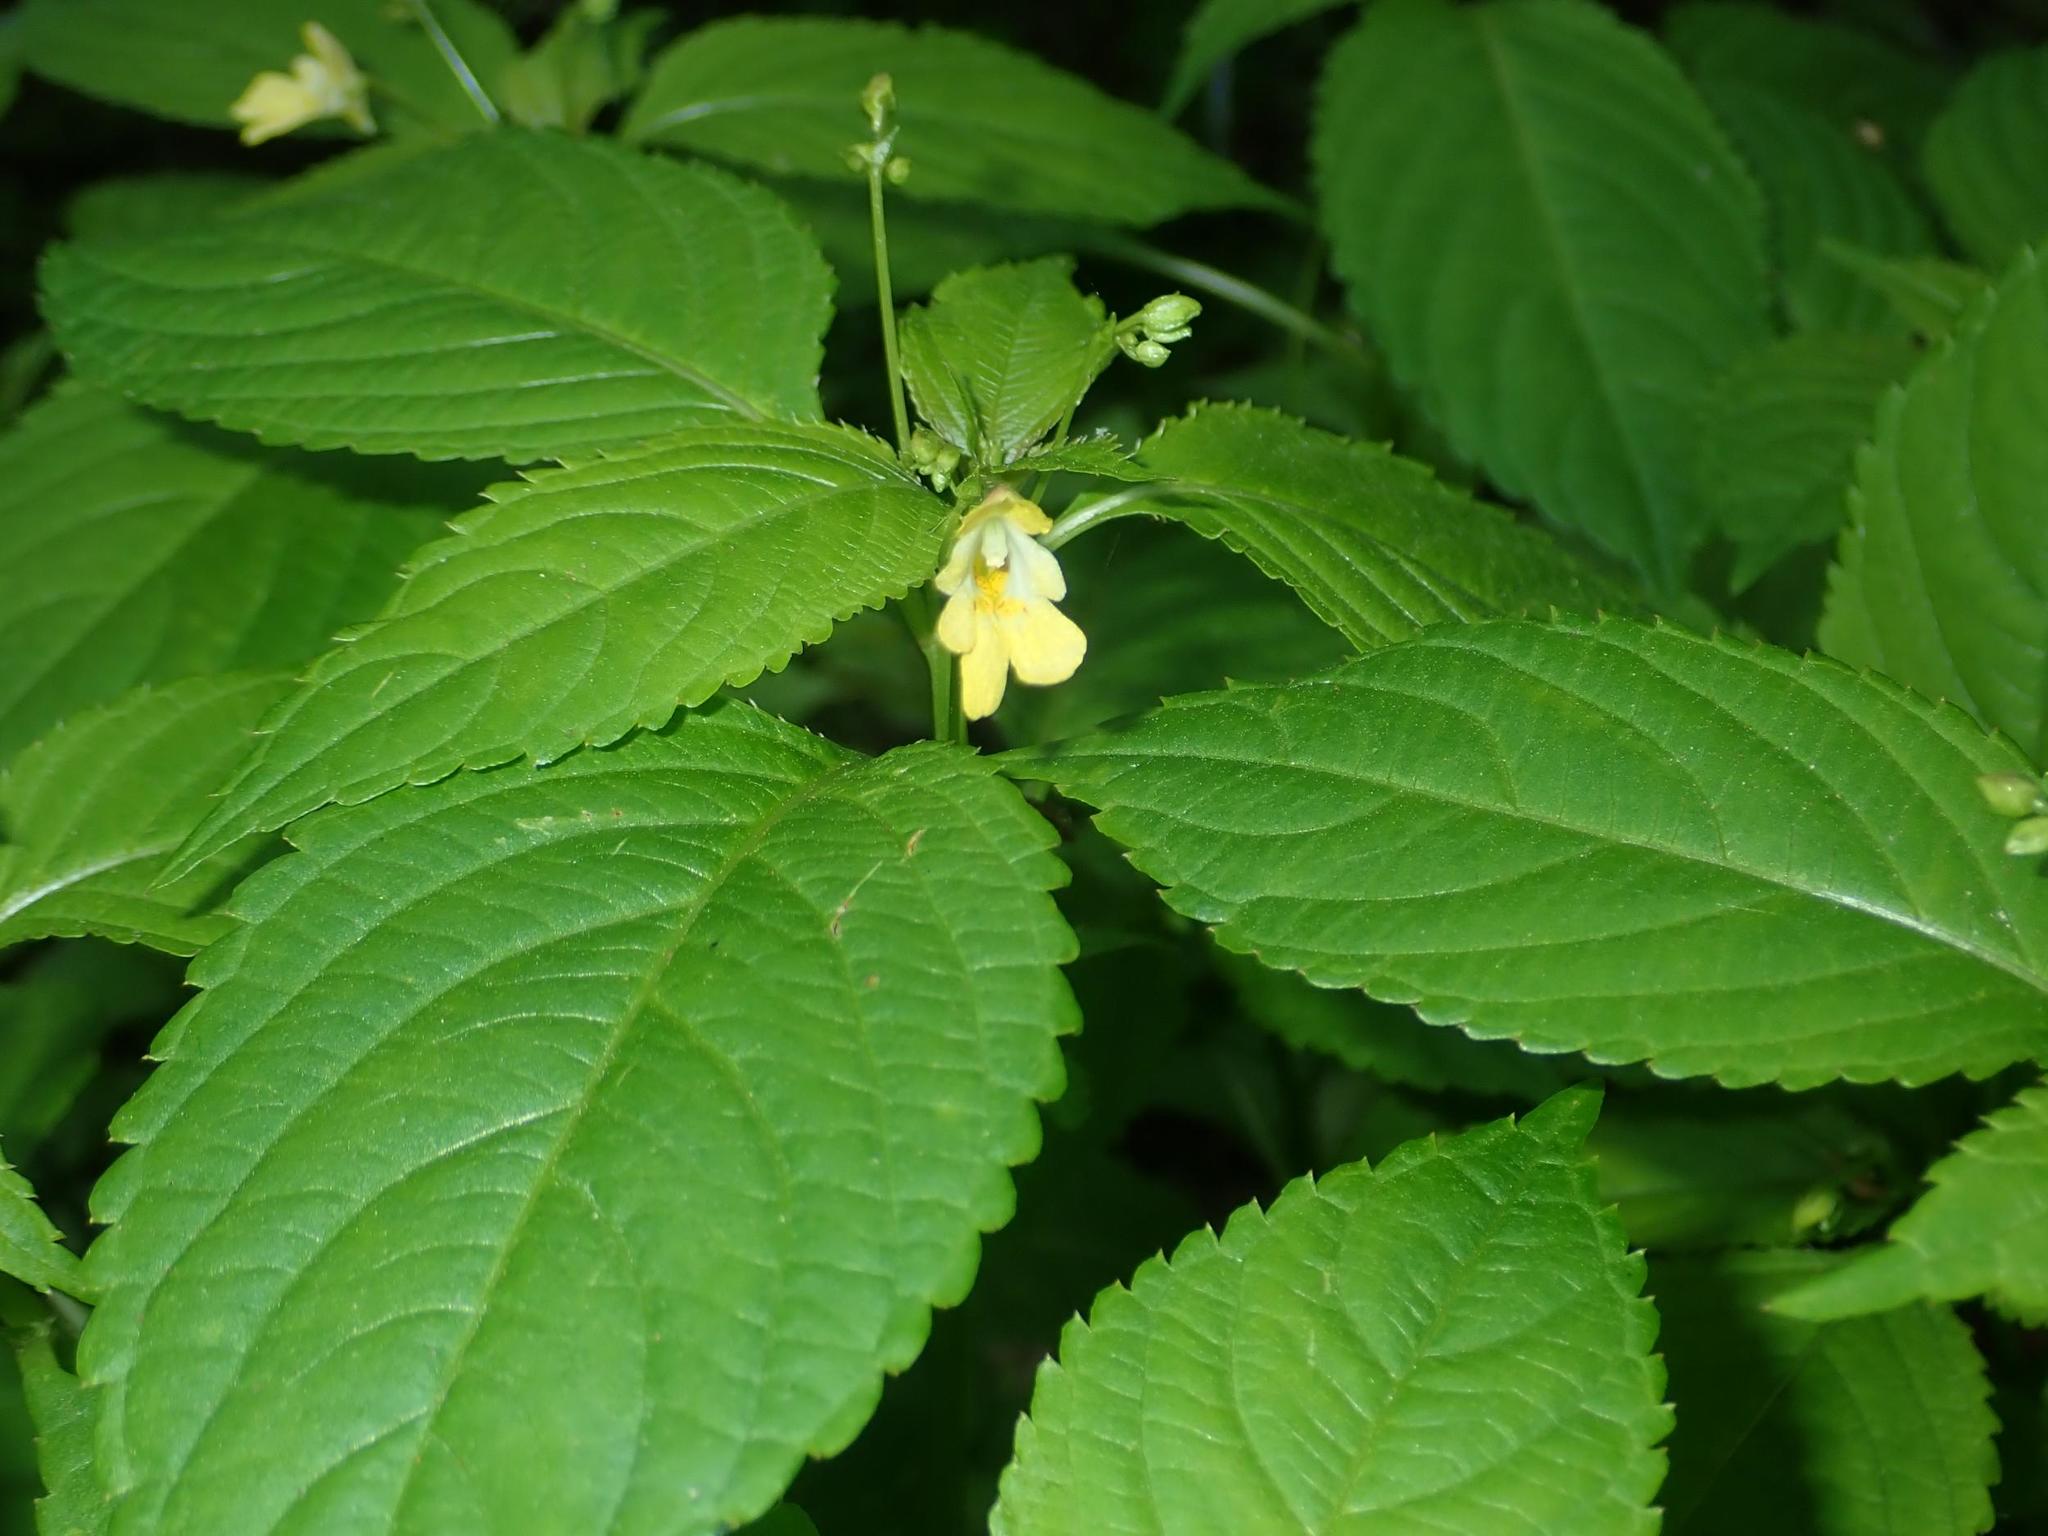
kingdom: Plantae
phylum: Tracheophyta
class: Magnoliopsida
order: Ericales
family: Balsaminaceae
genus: Impatiens
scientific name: Impatiens parviflora
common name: Small balsam
